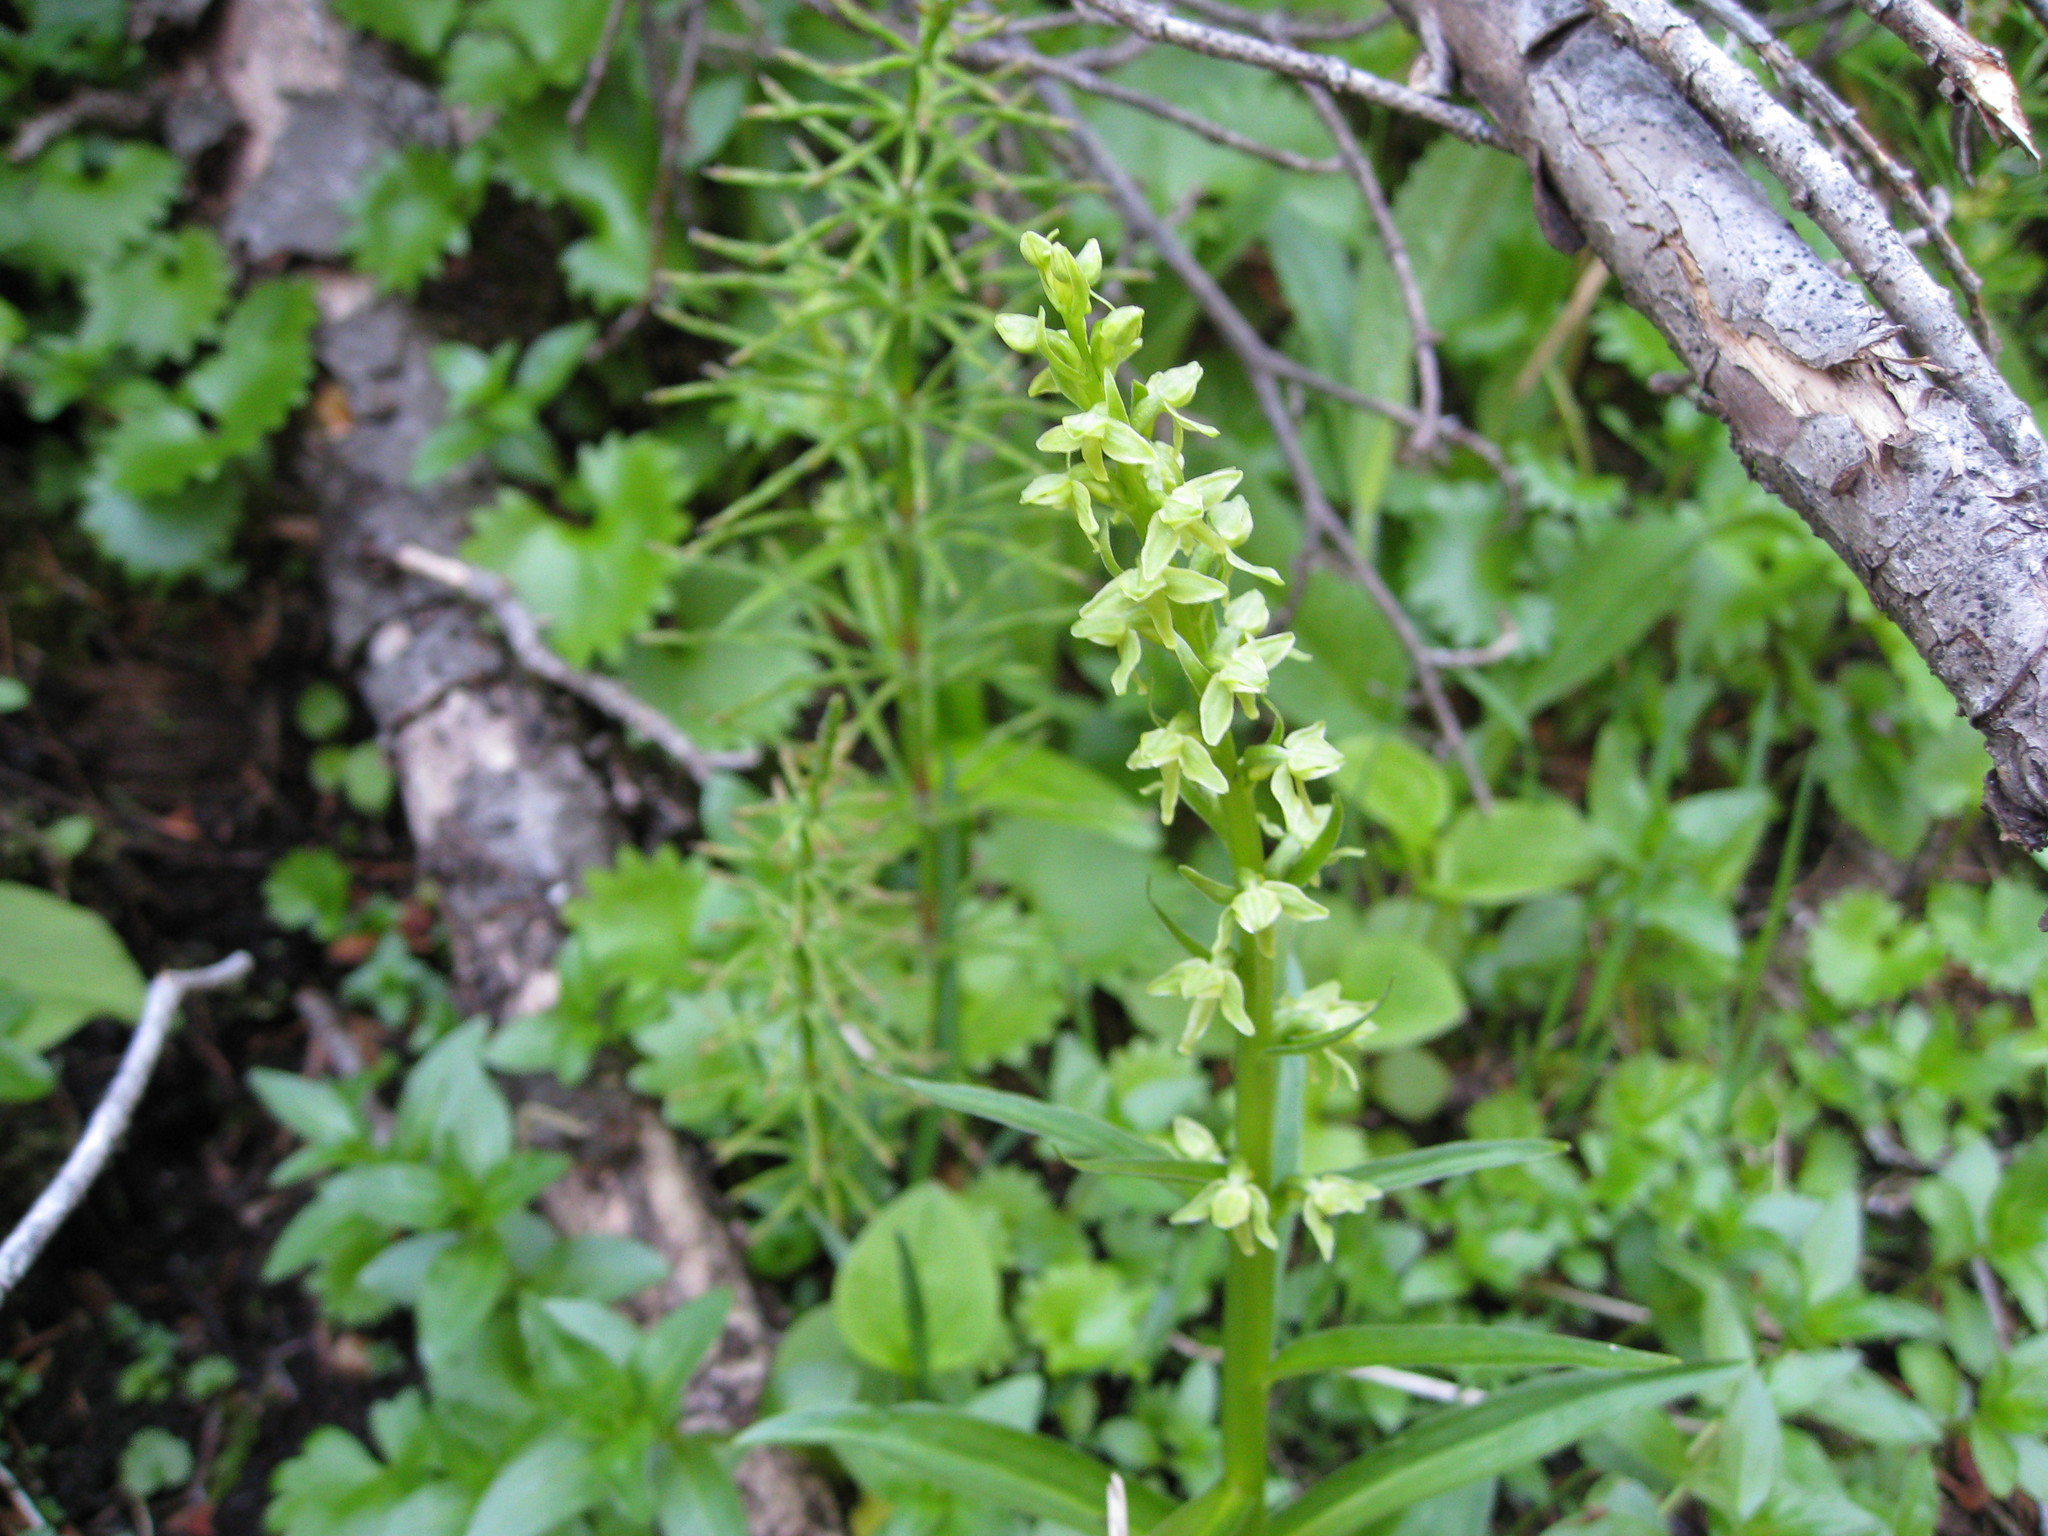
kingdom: Plantae
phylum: Tracheophyta
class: Liliopsida
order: Asparagales
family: Orchidaceae
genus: Platanthera
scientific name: Platanthera stricta
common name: Slender bog orchid
